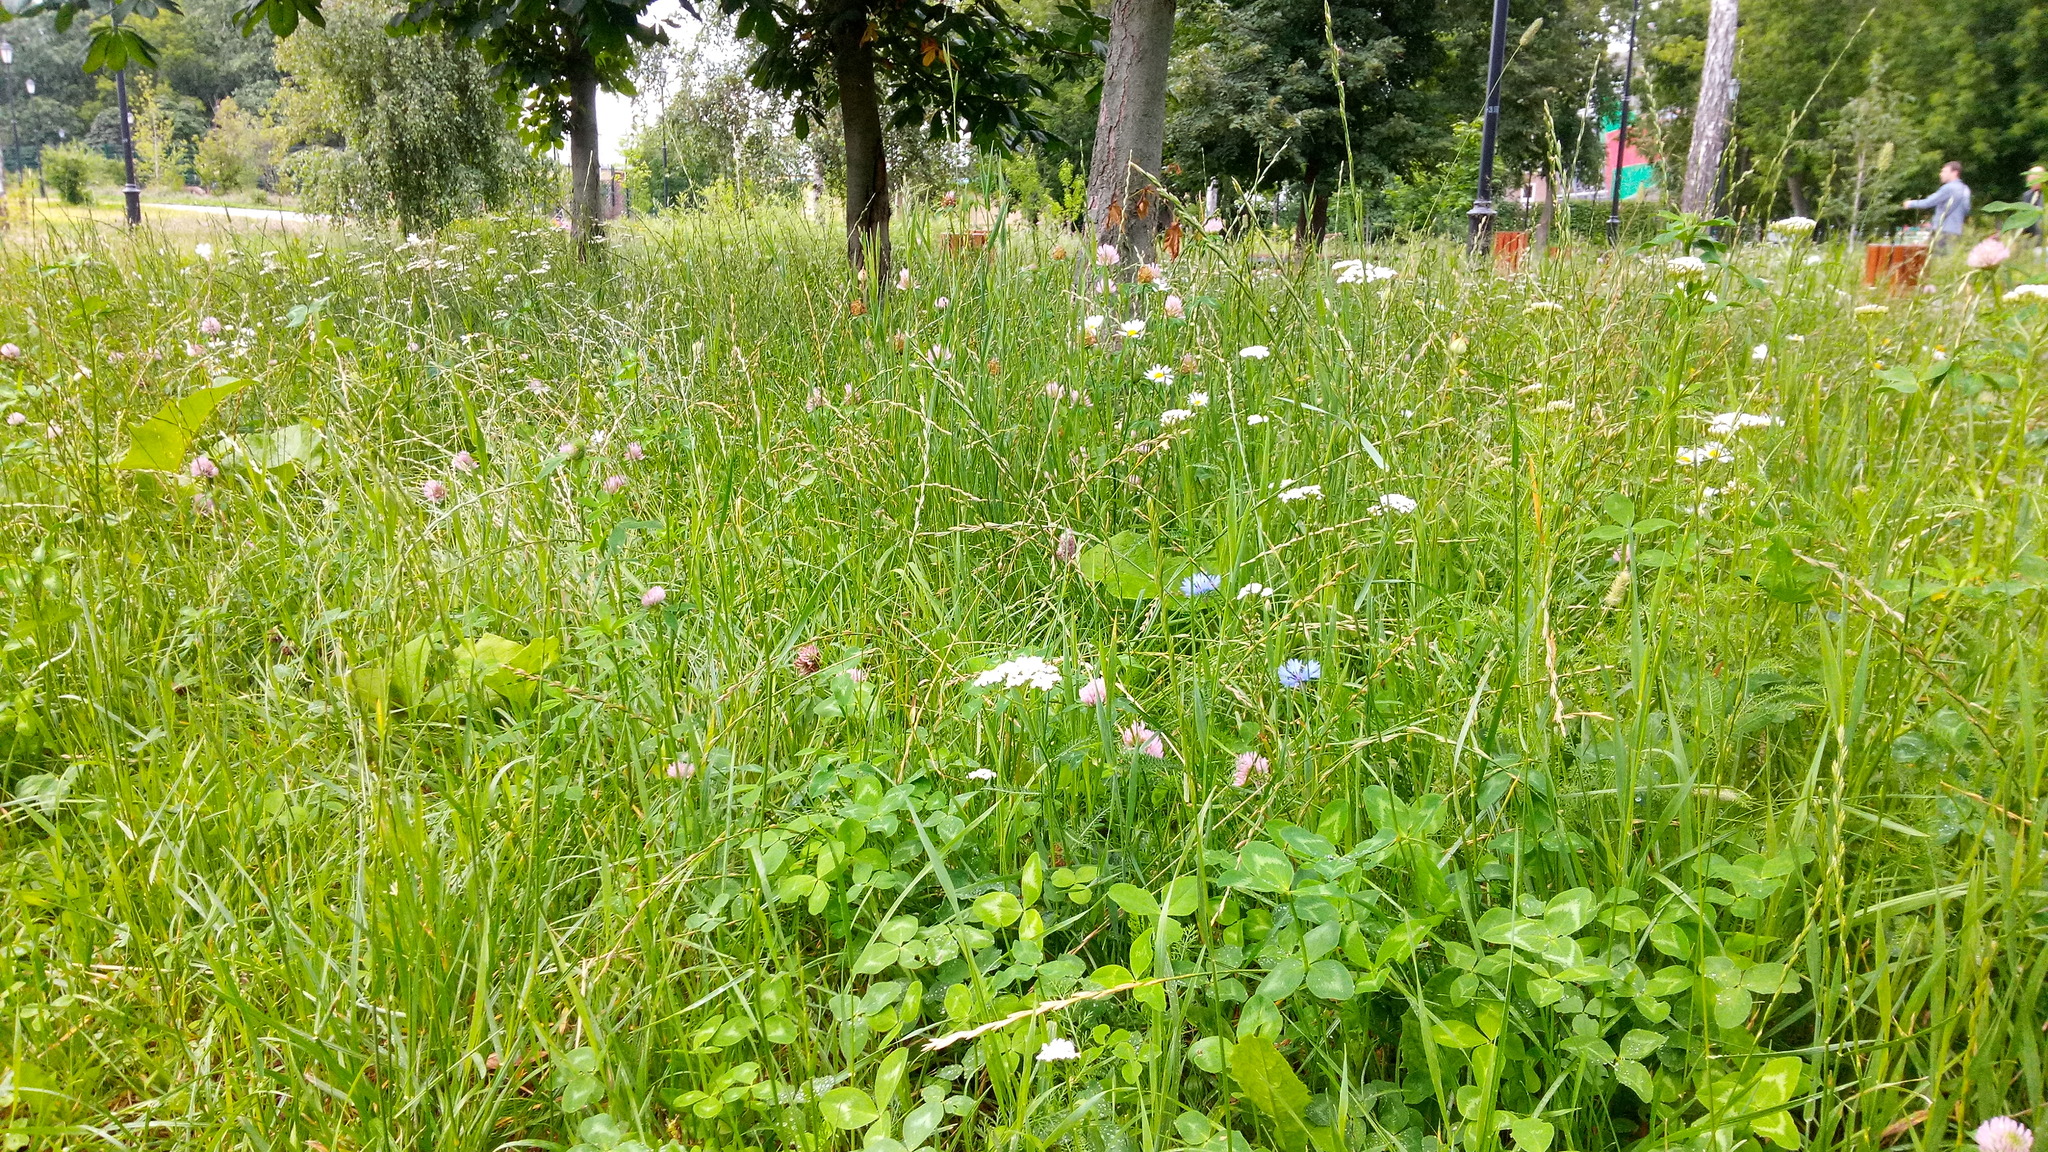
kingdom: Plantae
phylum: Tracheophyta
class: Magnoliopsida
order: Asterales
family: Asteraceae
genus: Centaurea
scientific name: Centaurea cyanus
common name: Cornflower
